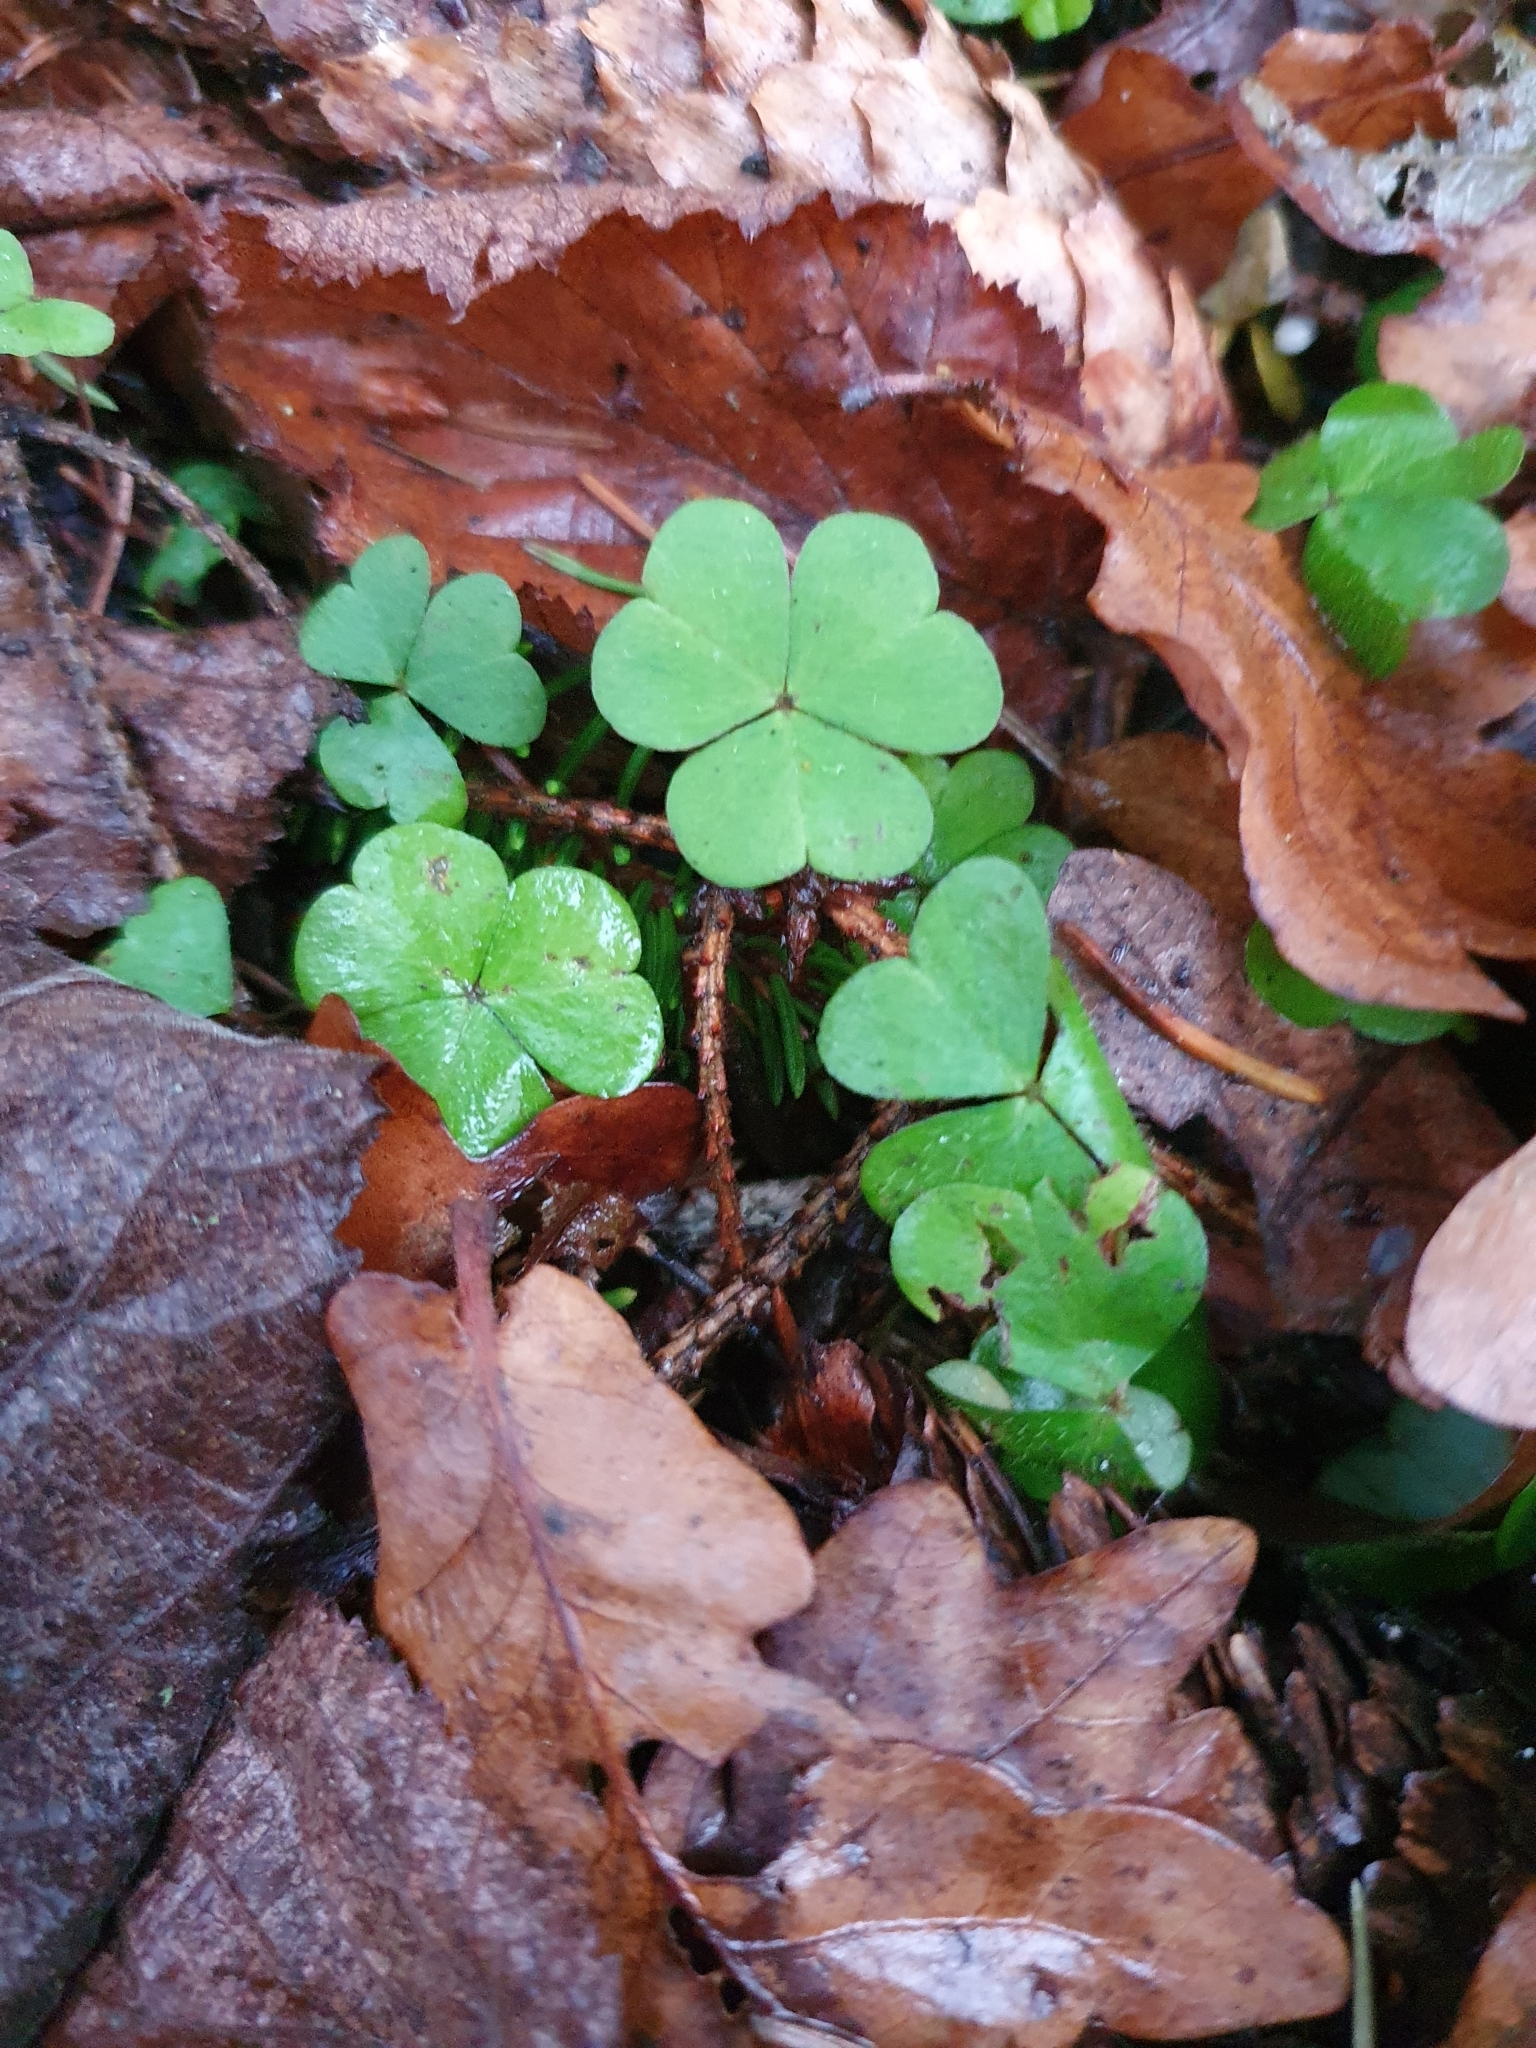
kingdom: Plantae
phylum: Tracheophyta
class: Magnoliopsida
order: Oxalidales
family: Oxalidaceae
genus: Oxalis
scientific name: Oxalis acetosella
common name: Wood-sorrel
